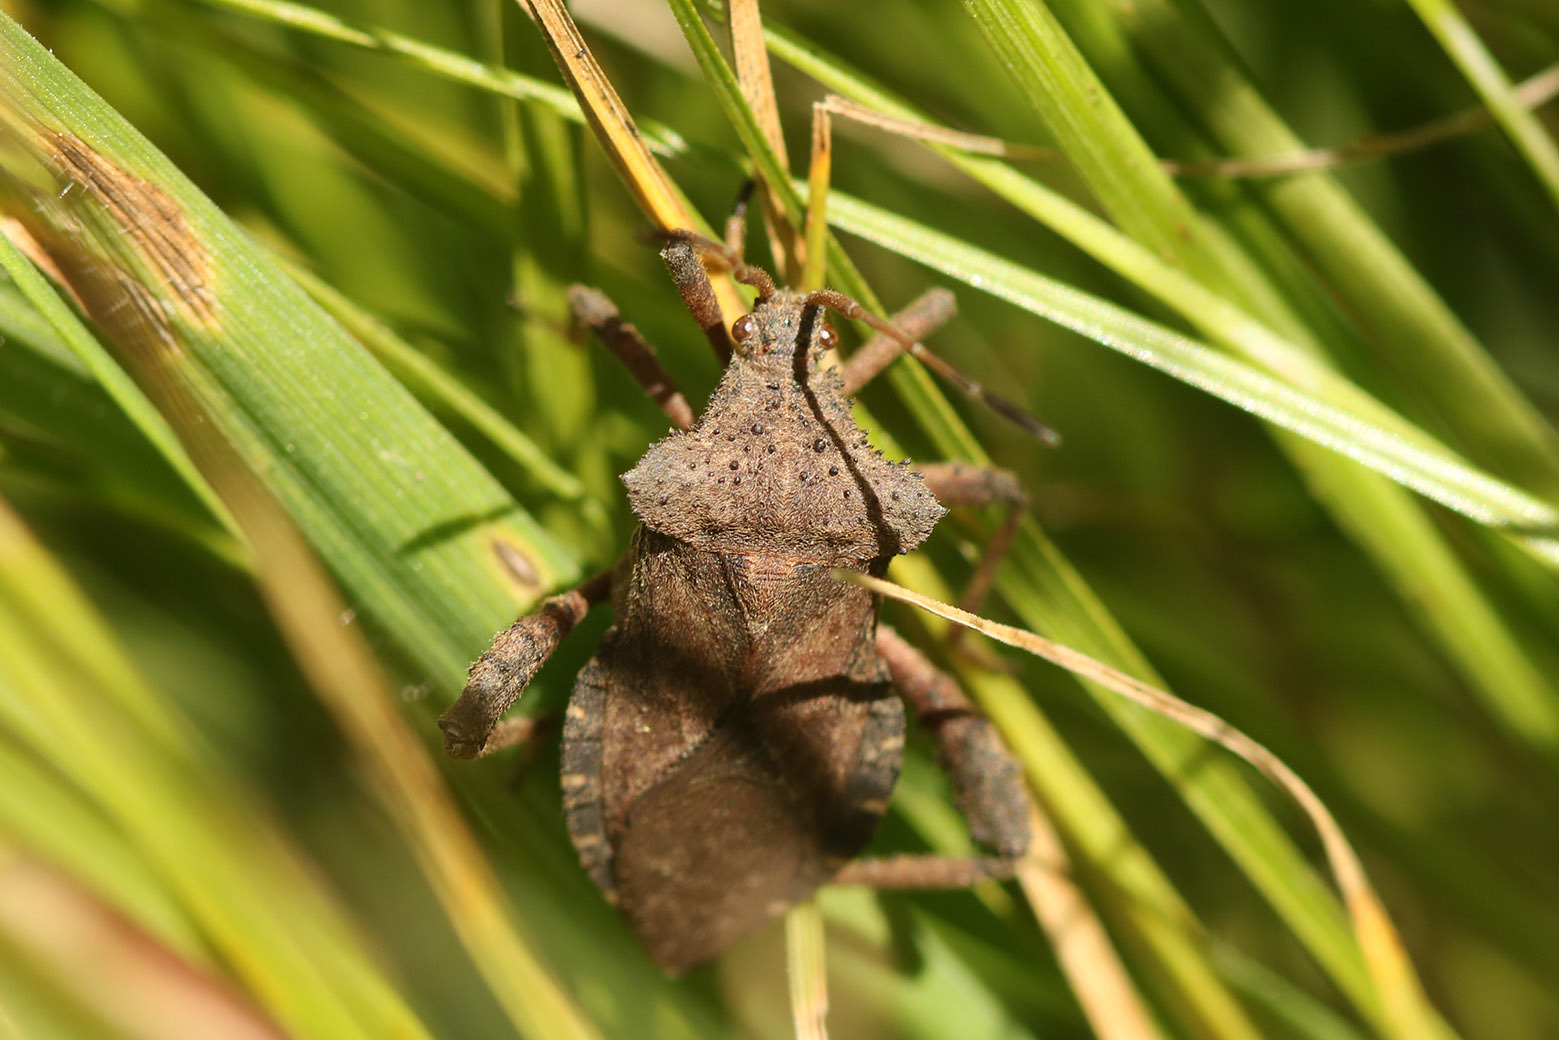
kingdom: Animalia
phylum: Arthropoda
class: Insecta
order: Hemiptera
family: Coreidae
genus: Camptischium
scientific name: Camptischium clavipes
